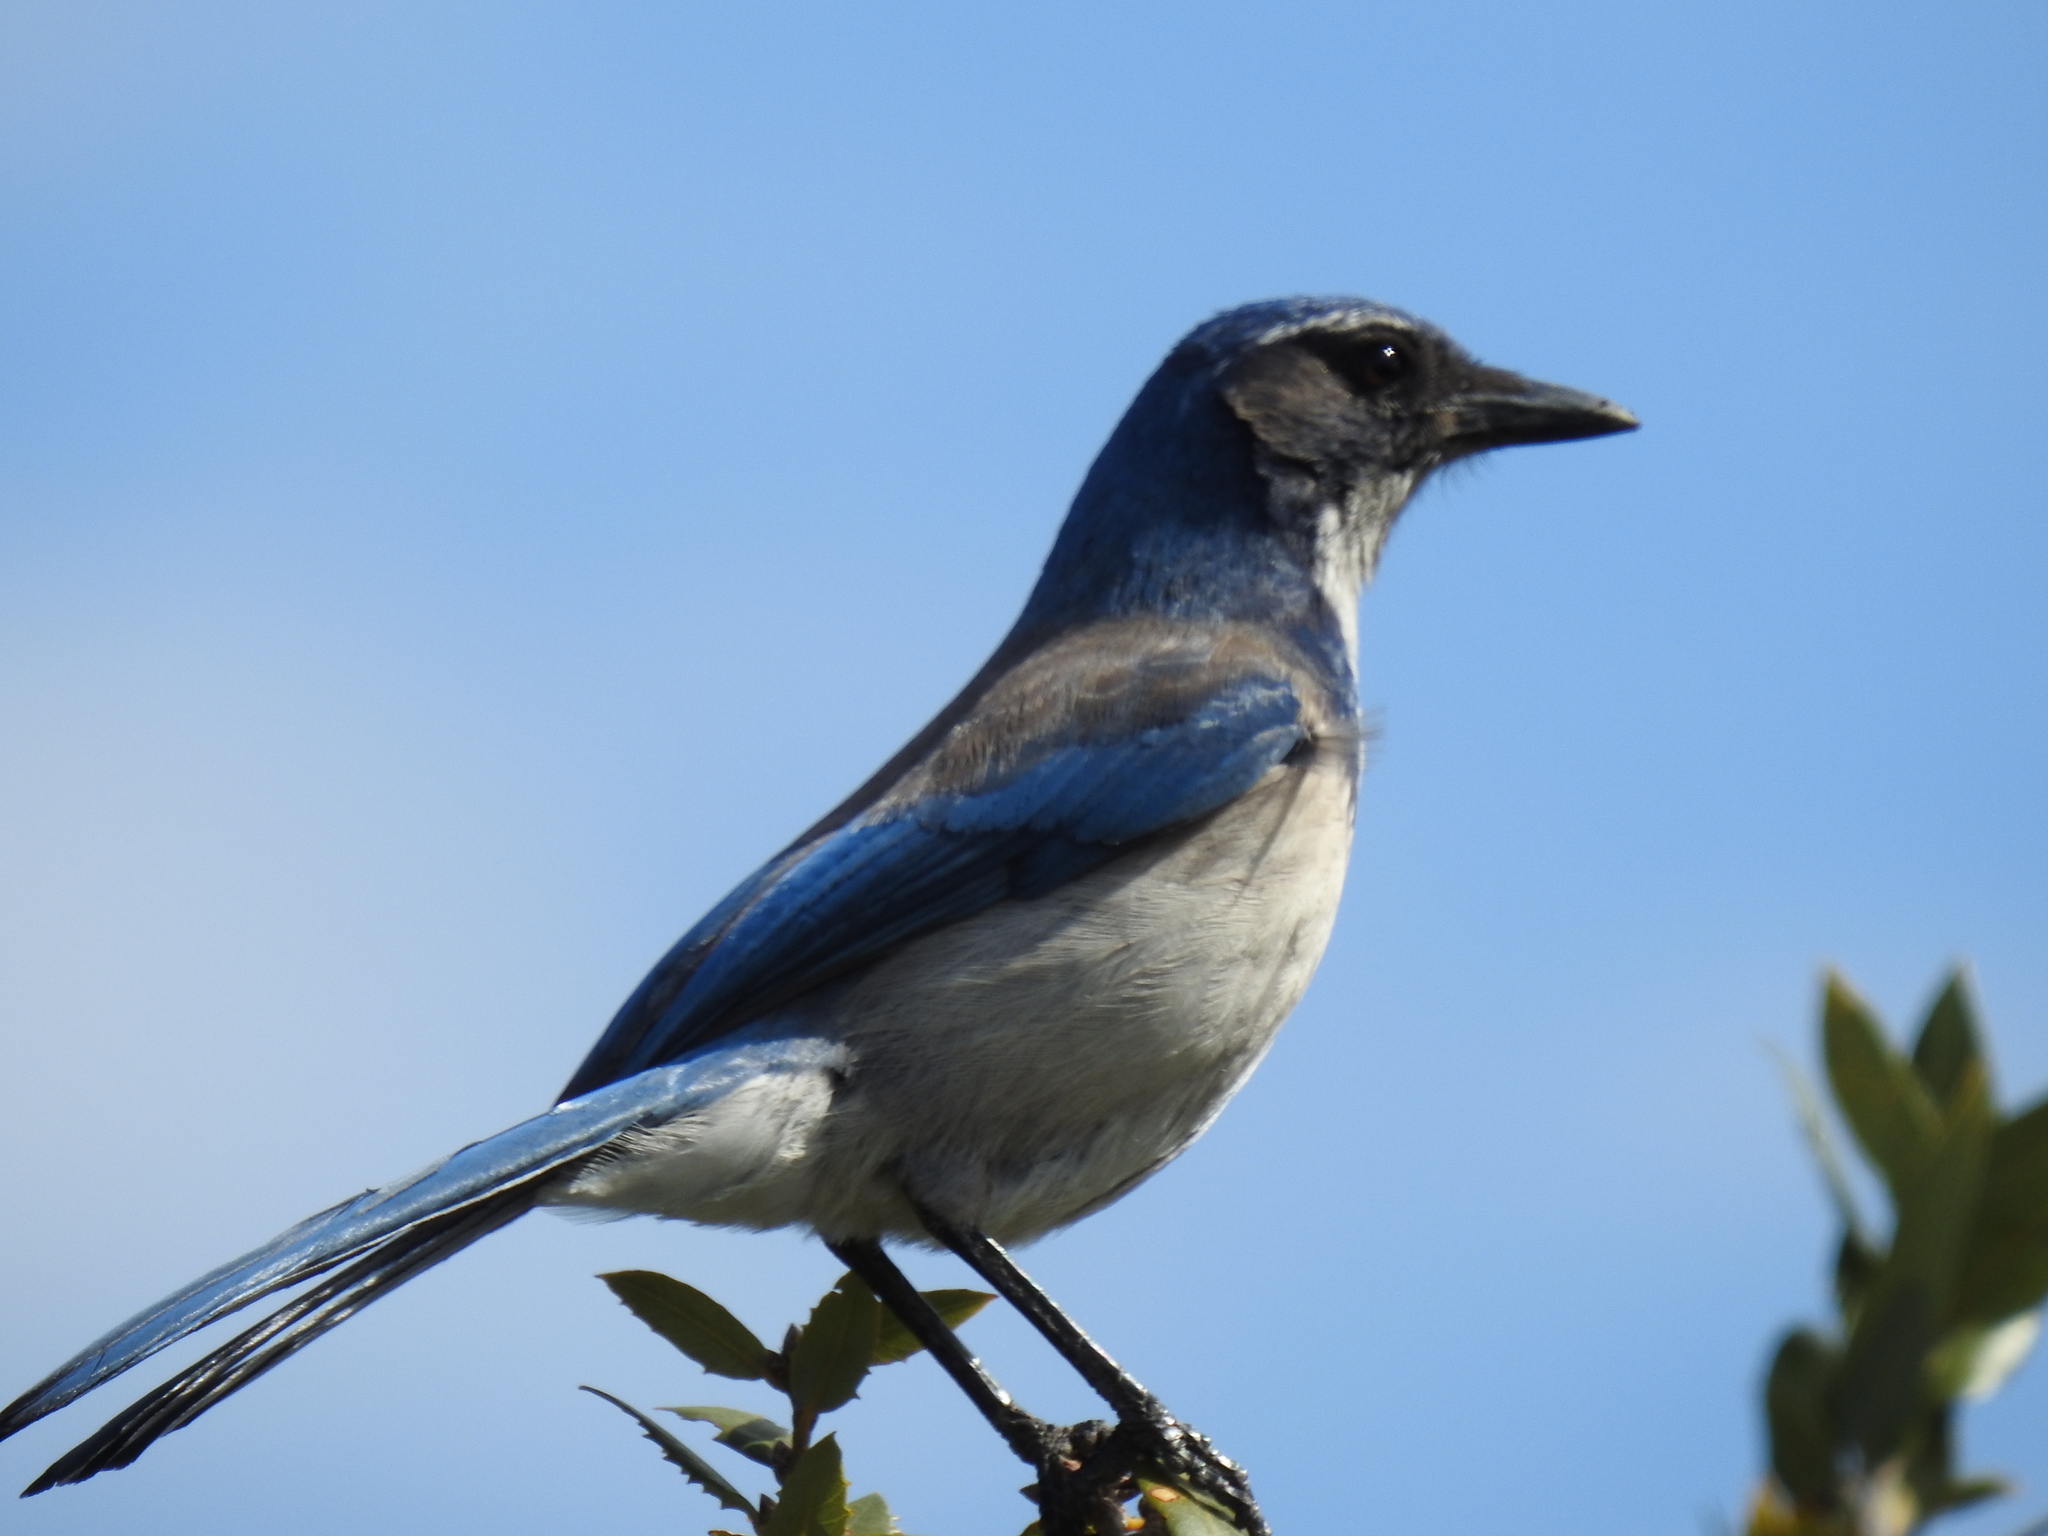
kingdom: Animalia
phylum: Chordata
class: Aves
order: Passeriformes
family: Corvidae
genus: Aphelocoma
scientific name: Aphelocoma californica
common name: California scrub-jay
